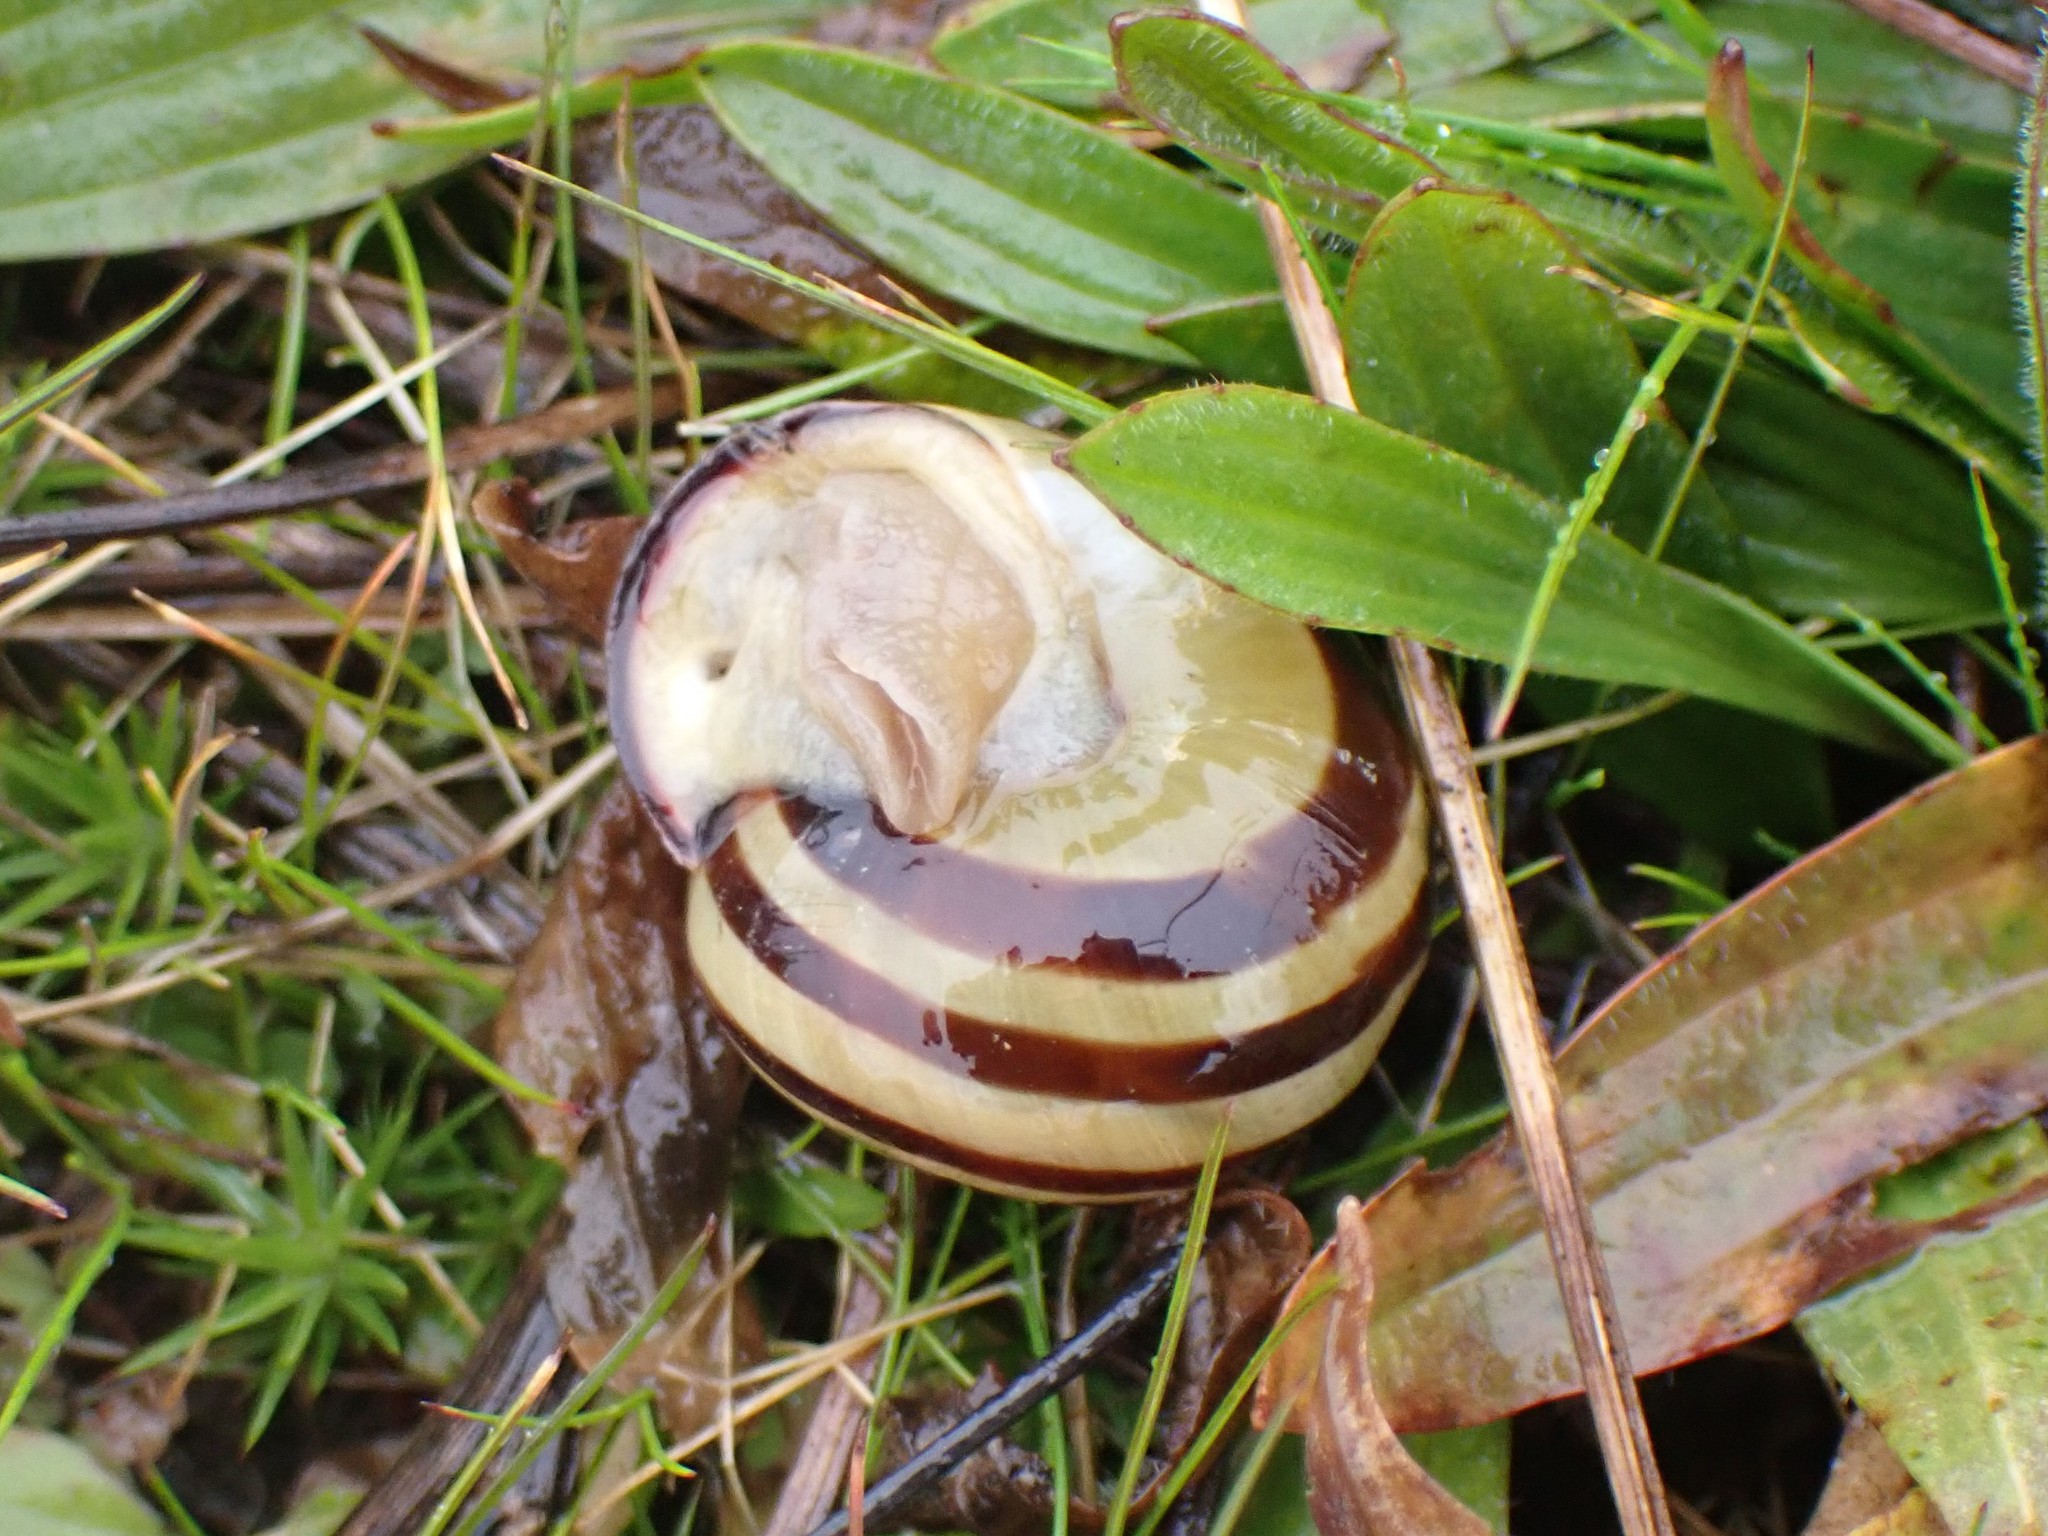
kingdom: Animalia
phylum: Mollusca
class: Gastropoda
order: Stylommatophora
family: Helicidae
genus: Cepaea
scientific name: Cepaea nemoralis
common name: Grovesnail
